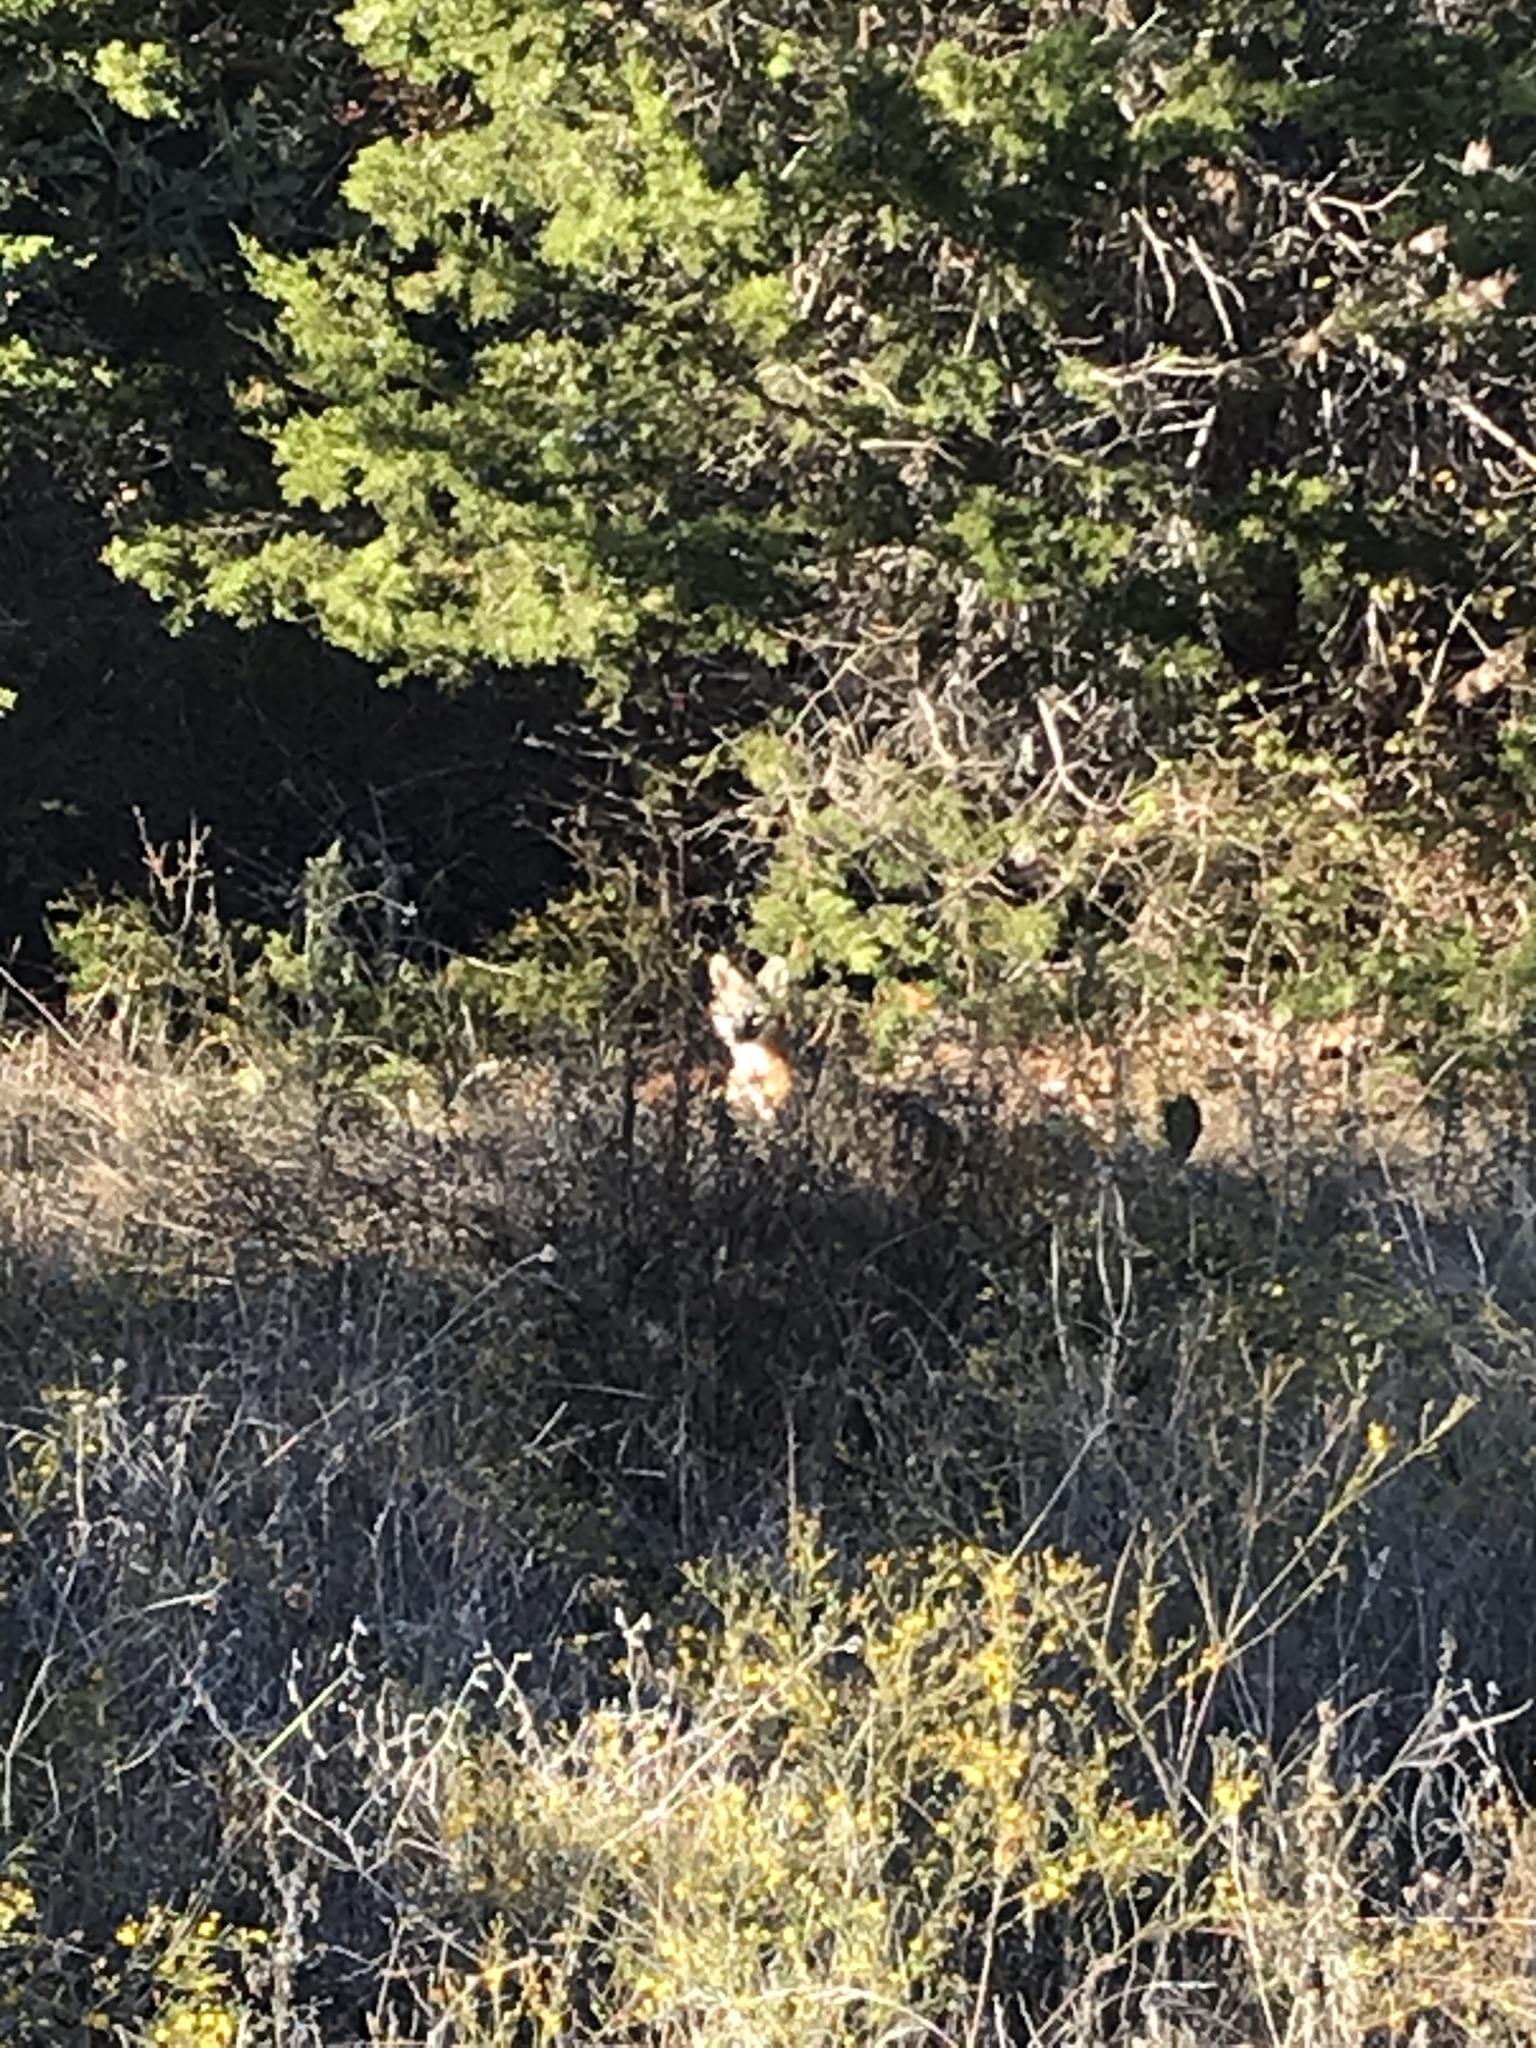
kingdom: Animalia
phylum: Chordata
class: Mammalia
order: Carnivora
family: Canidae
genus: Urocyon
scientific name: Urocyon cinereoargenteus
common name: Gray fox
